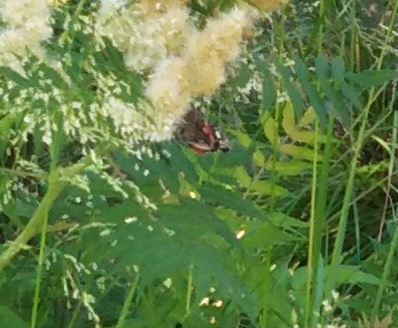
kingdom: Animalia
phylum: Arthropoda
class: Insecta
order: Lepidoptera
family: Nymphalidae
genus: Vanessa
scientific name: Vanessa atalanta
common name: Red admiral
